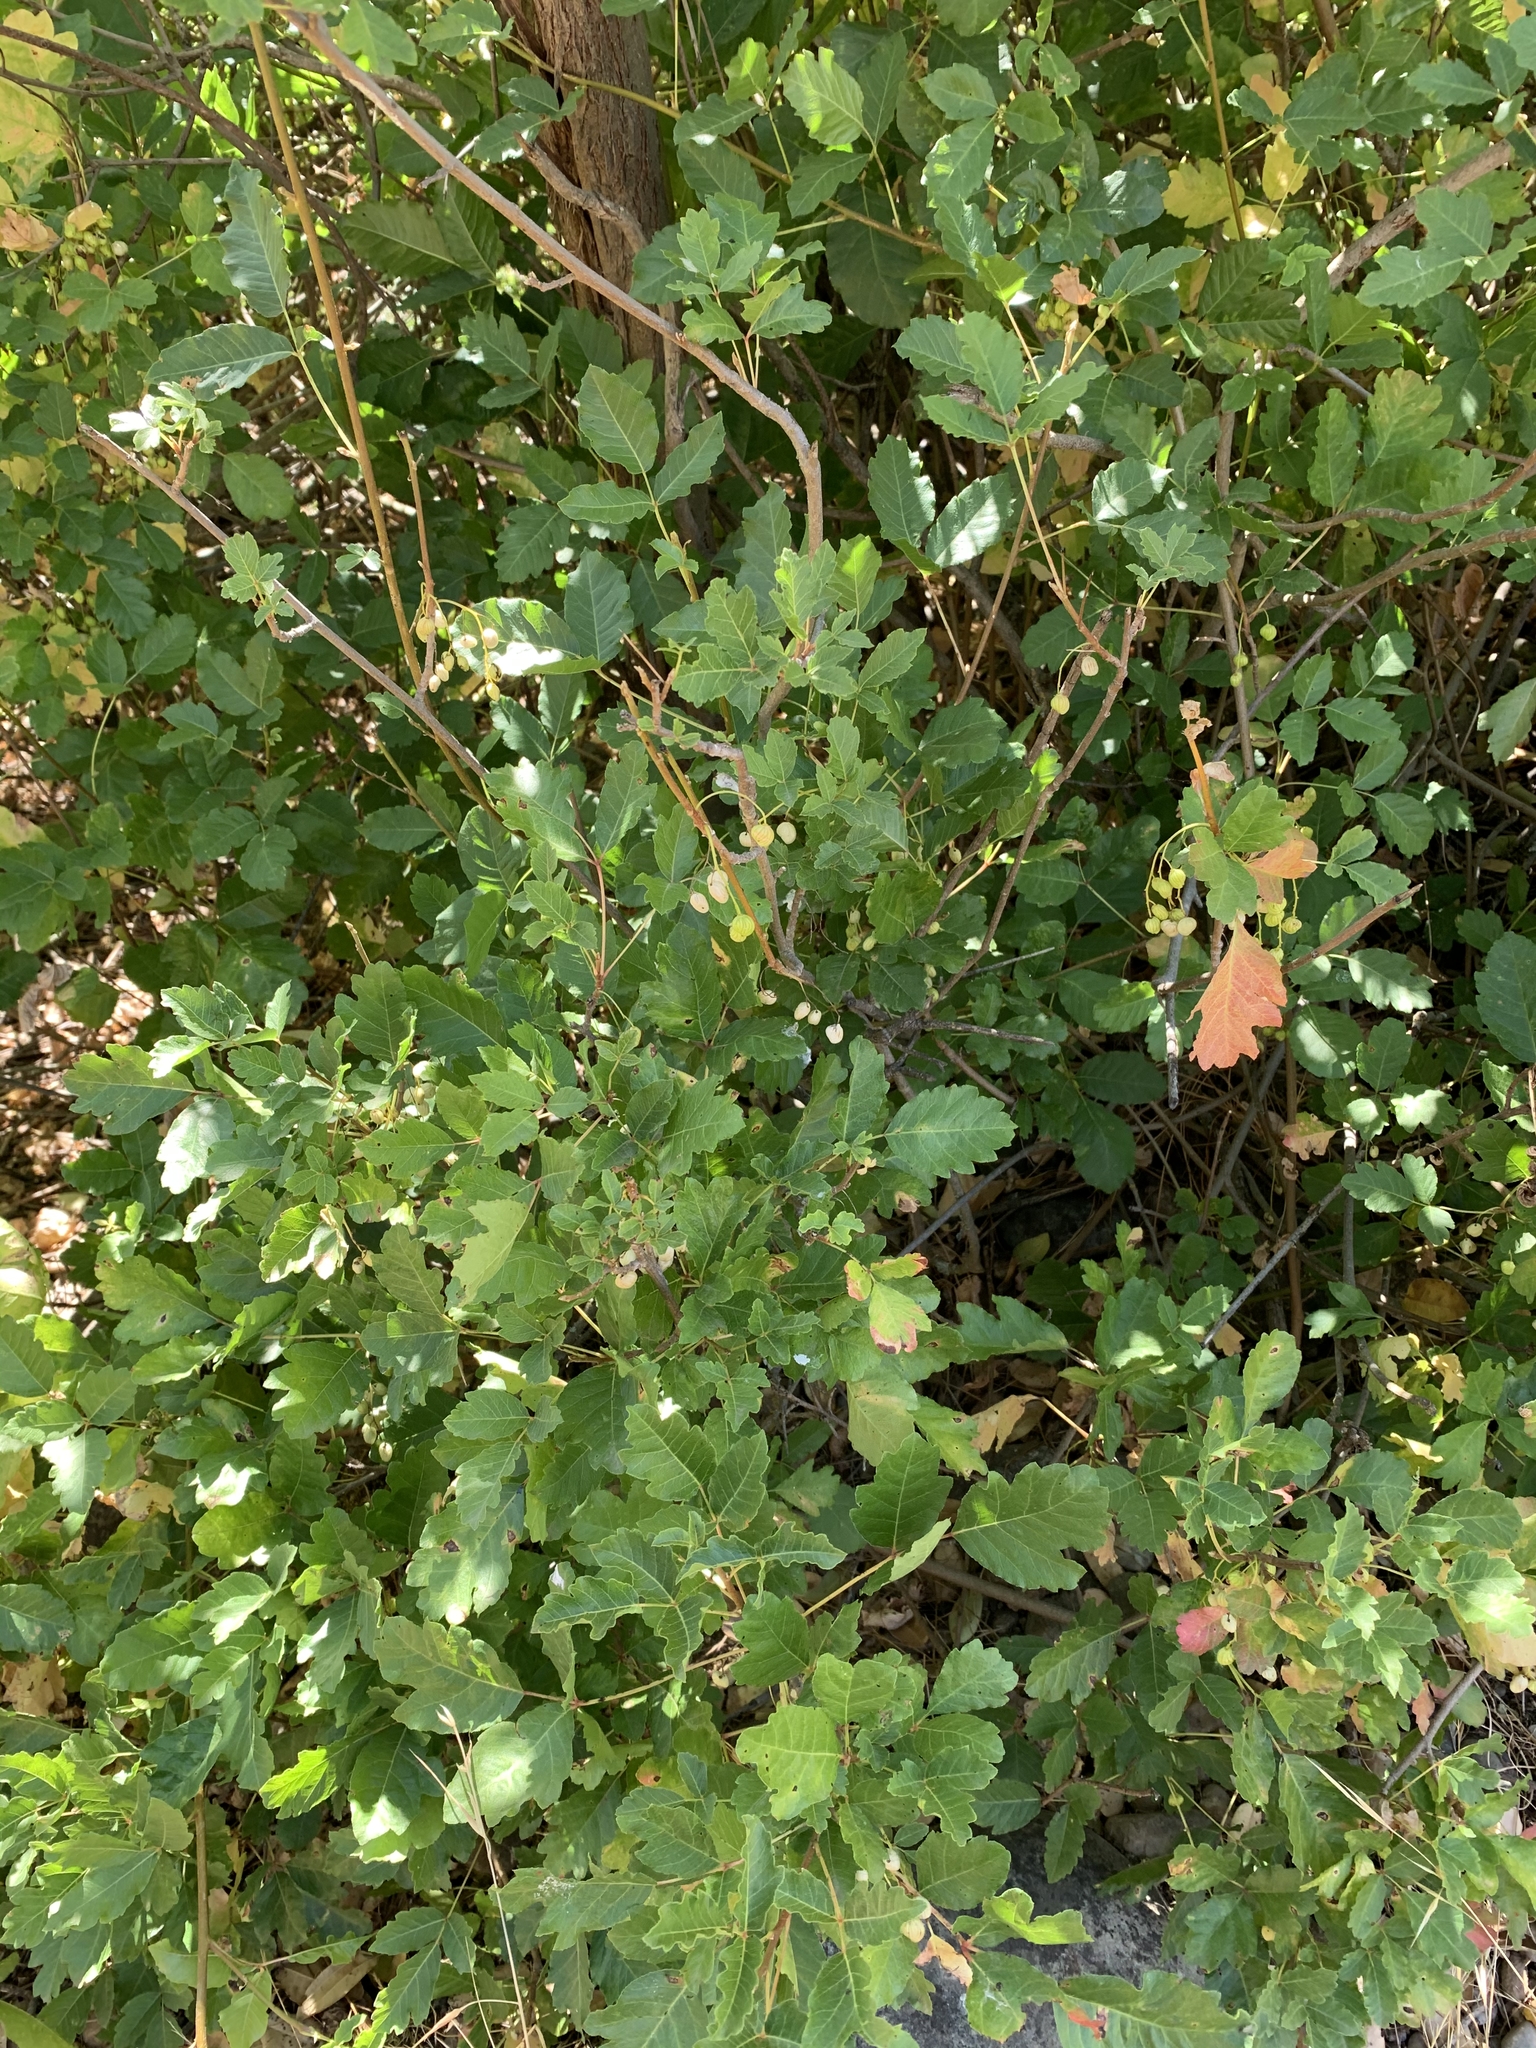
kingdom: Plantae
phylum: Tracheophyta
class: Magnoliopsida
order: Sapindales
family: Anacardiaceae
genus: Toxicodendron
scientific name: Toxicodendron diversilobum
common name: Pacific poison-oak
